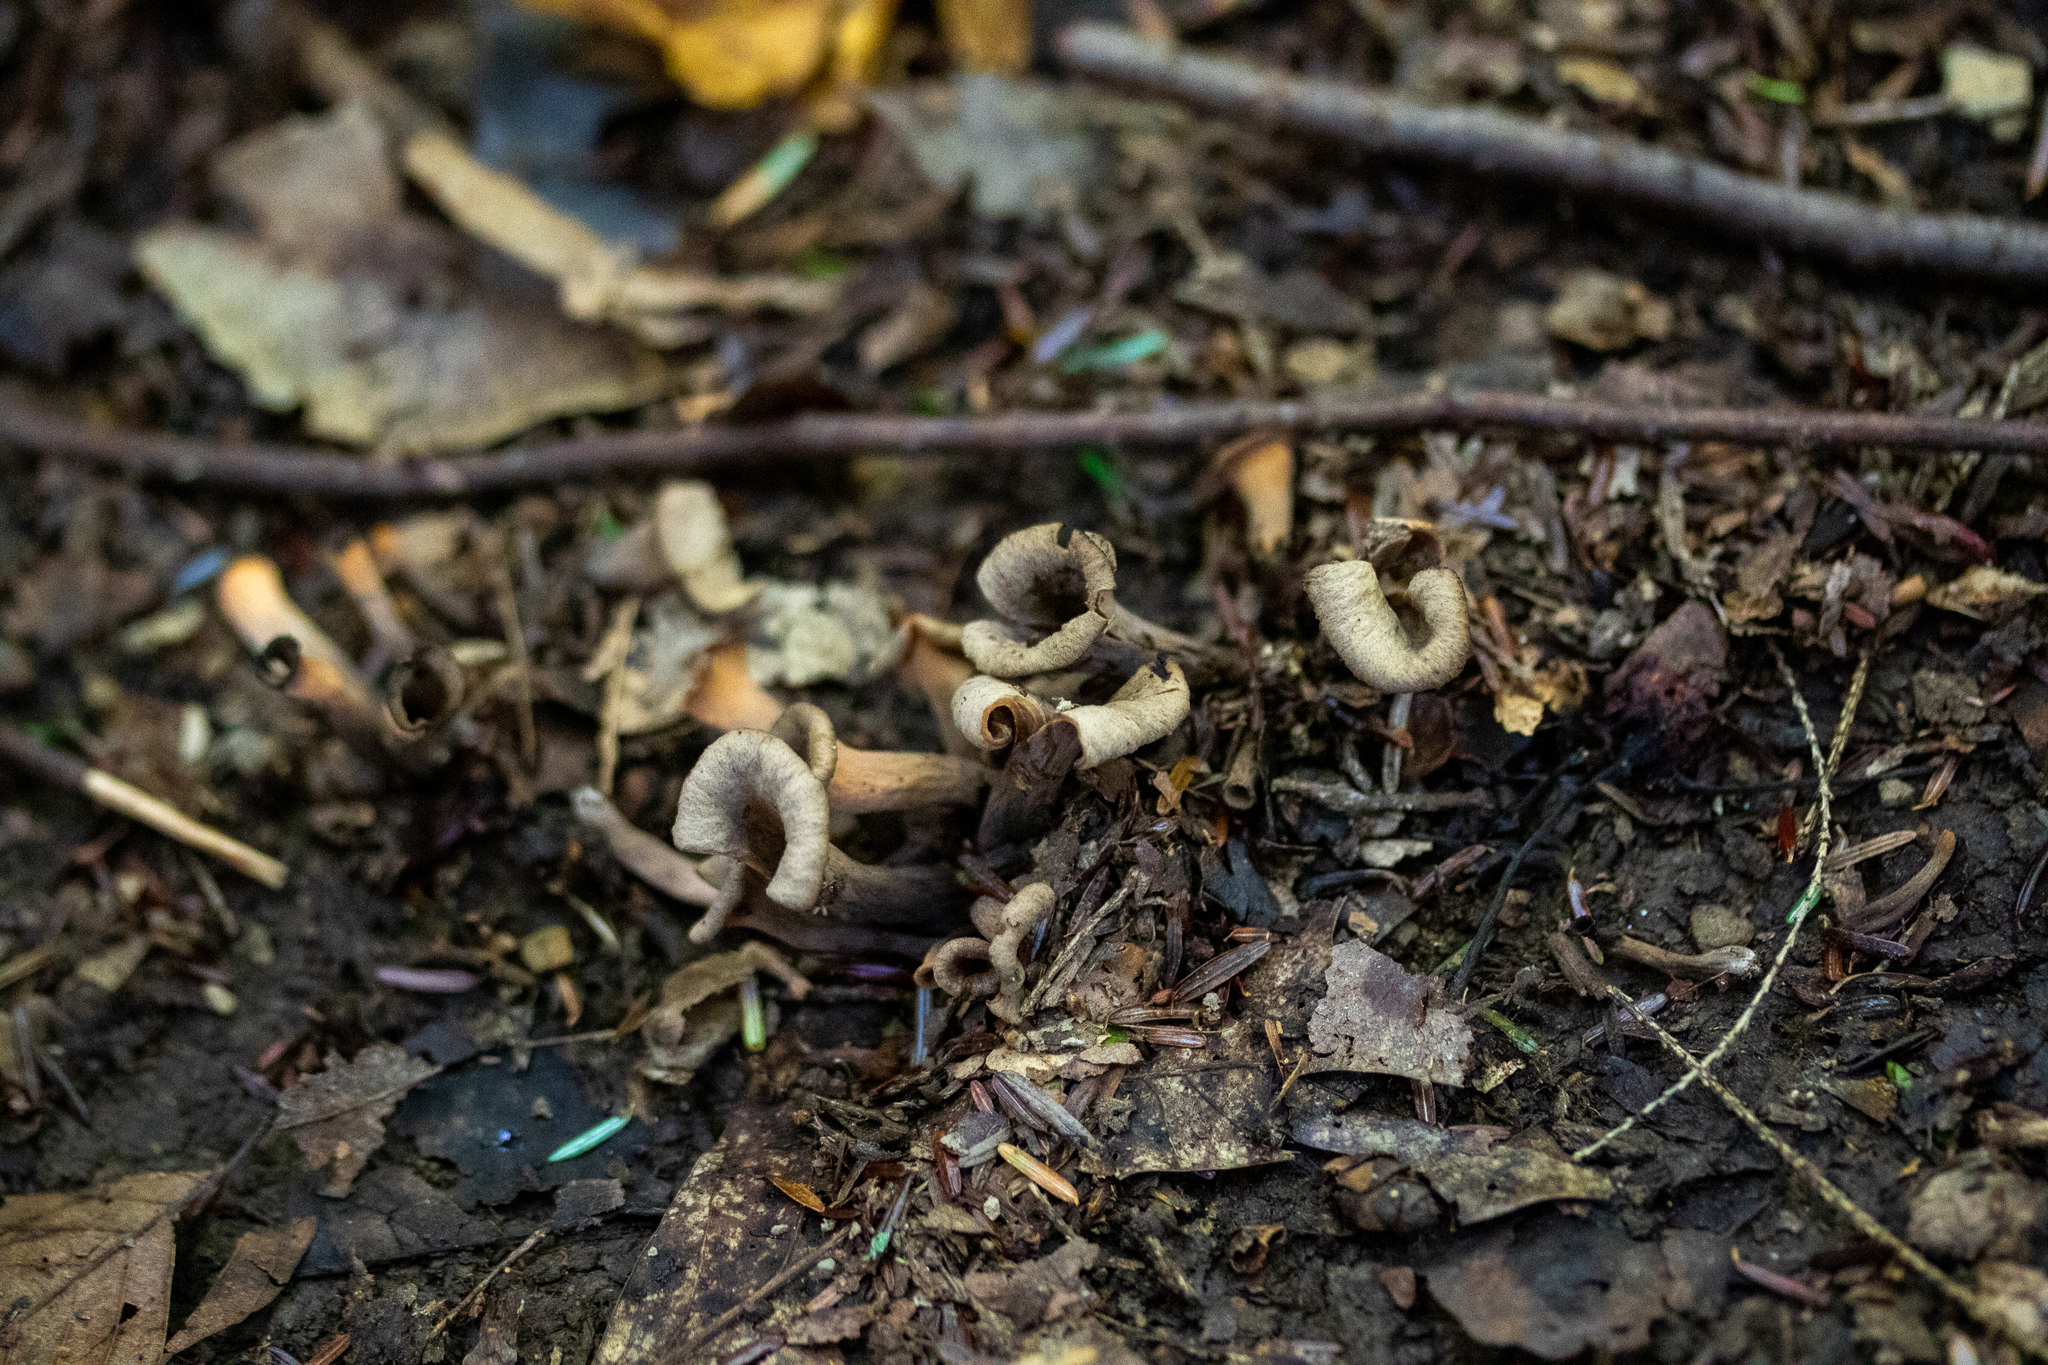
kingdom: Fungi
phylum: Basidiomycota
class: Agaricomycetes
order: Cantharellales
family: Hydnaceae
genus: Craterellus
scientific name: Craterellus cornucopioides
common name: Horn of plenty
